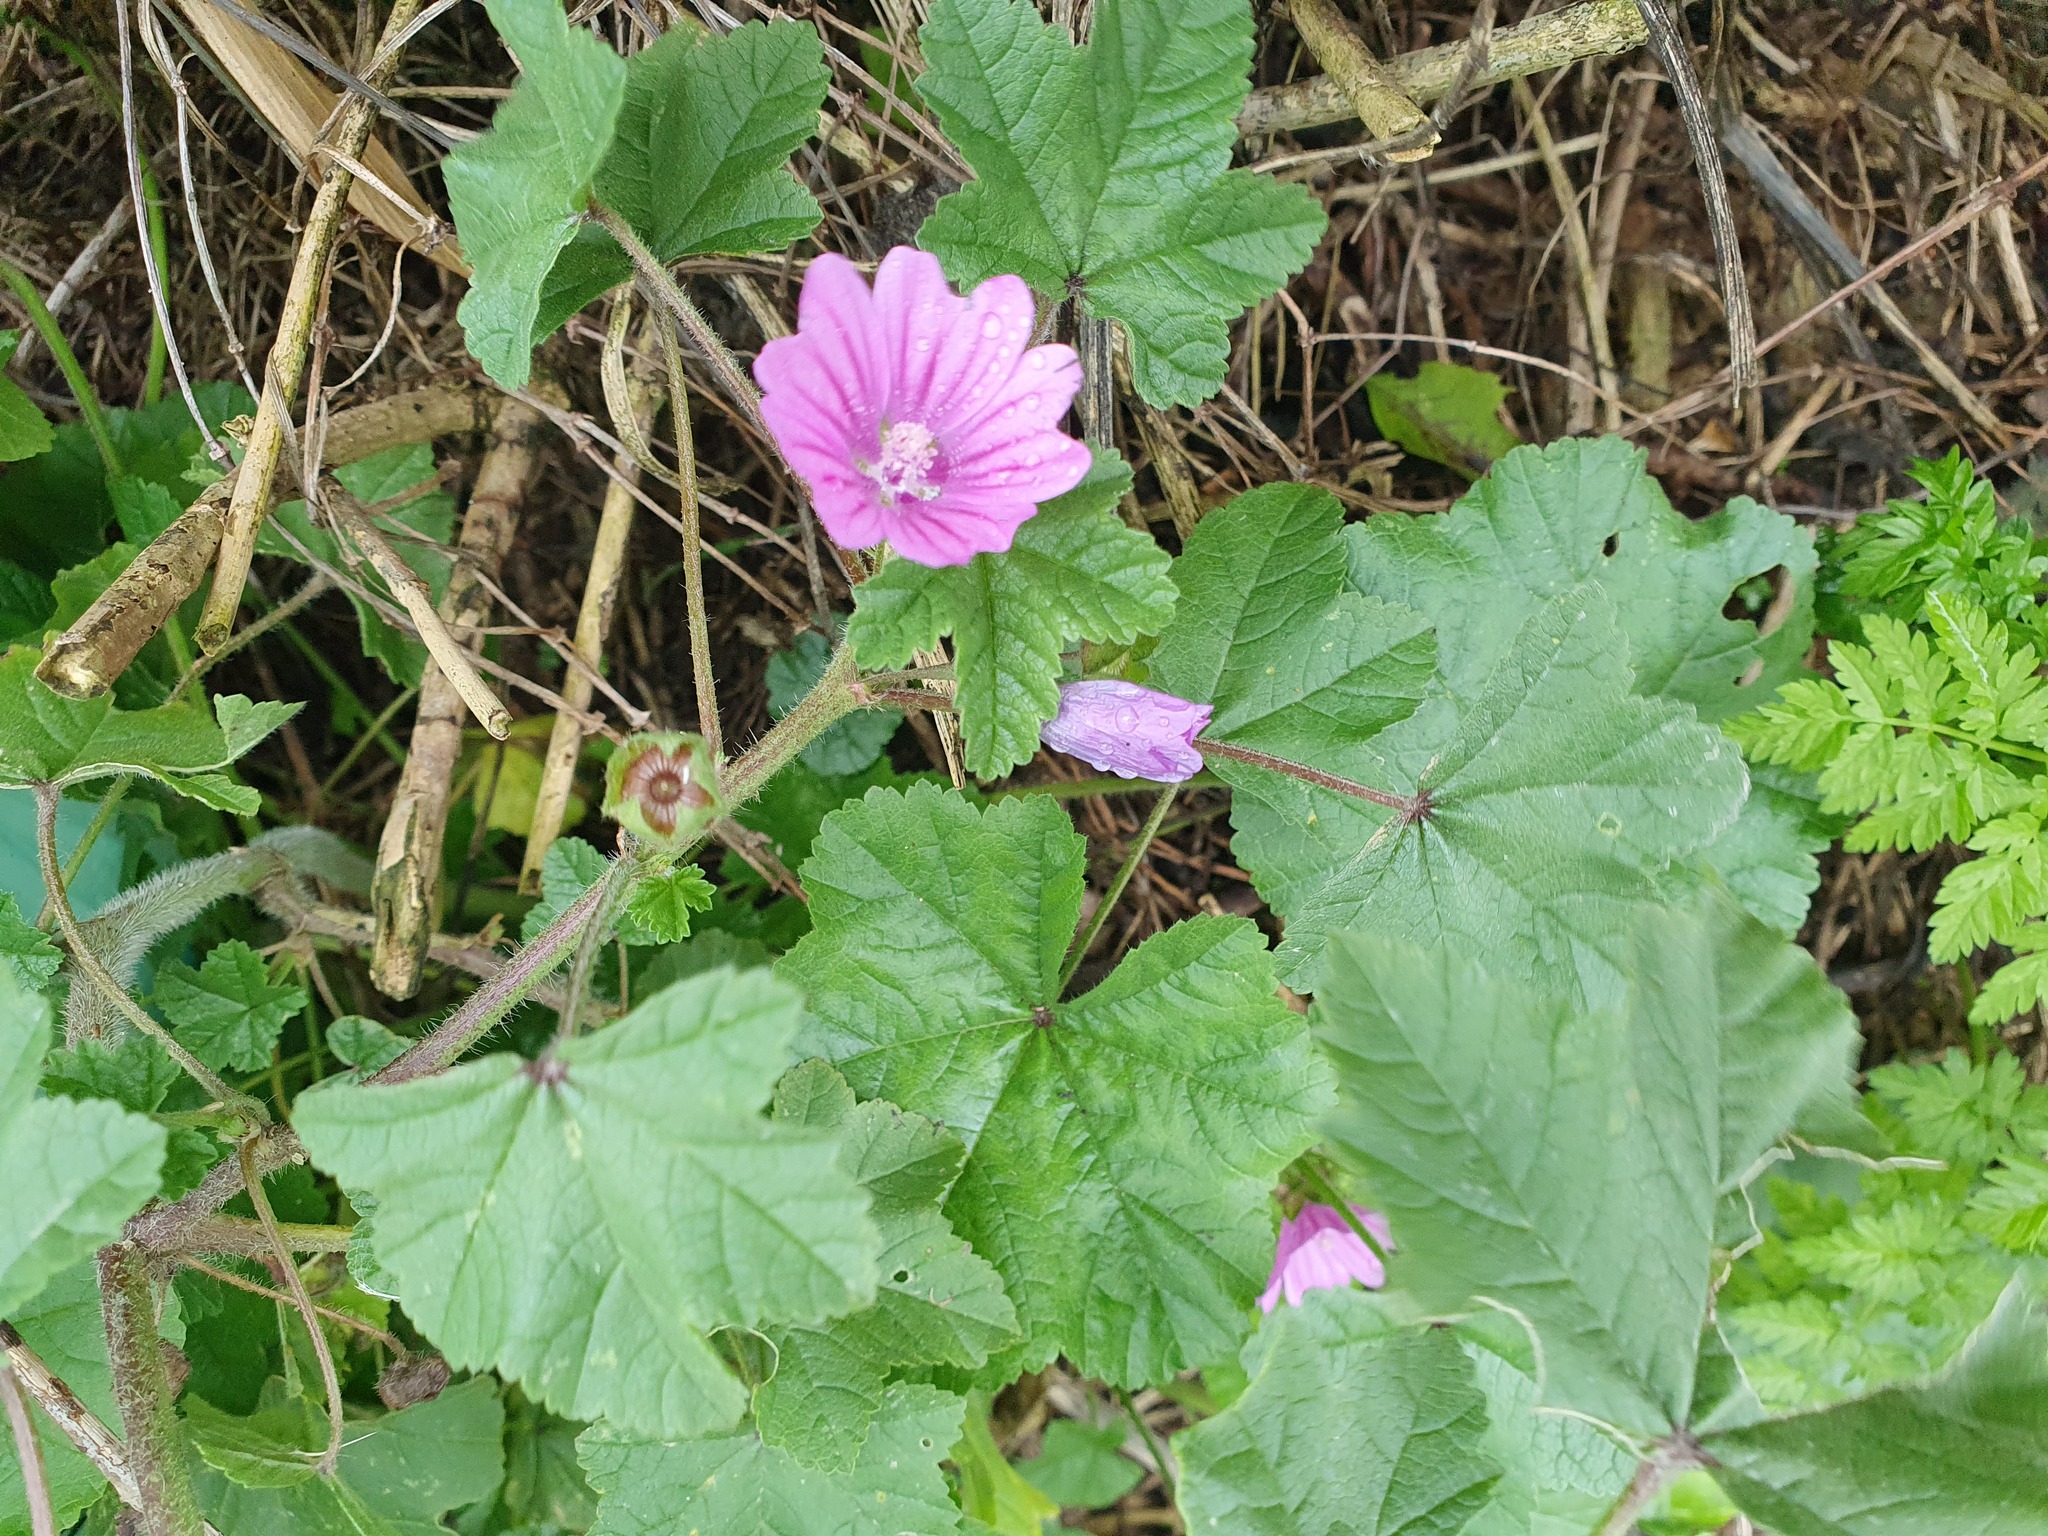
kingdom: Plantae
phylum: Tracheophyta
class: Magnoliopsida
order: Malvales
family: Malvaceae
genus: Malva
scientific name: Malva sylvestris
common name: Common mallow
